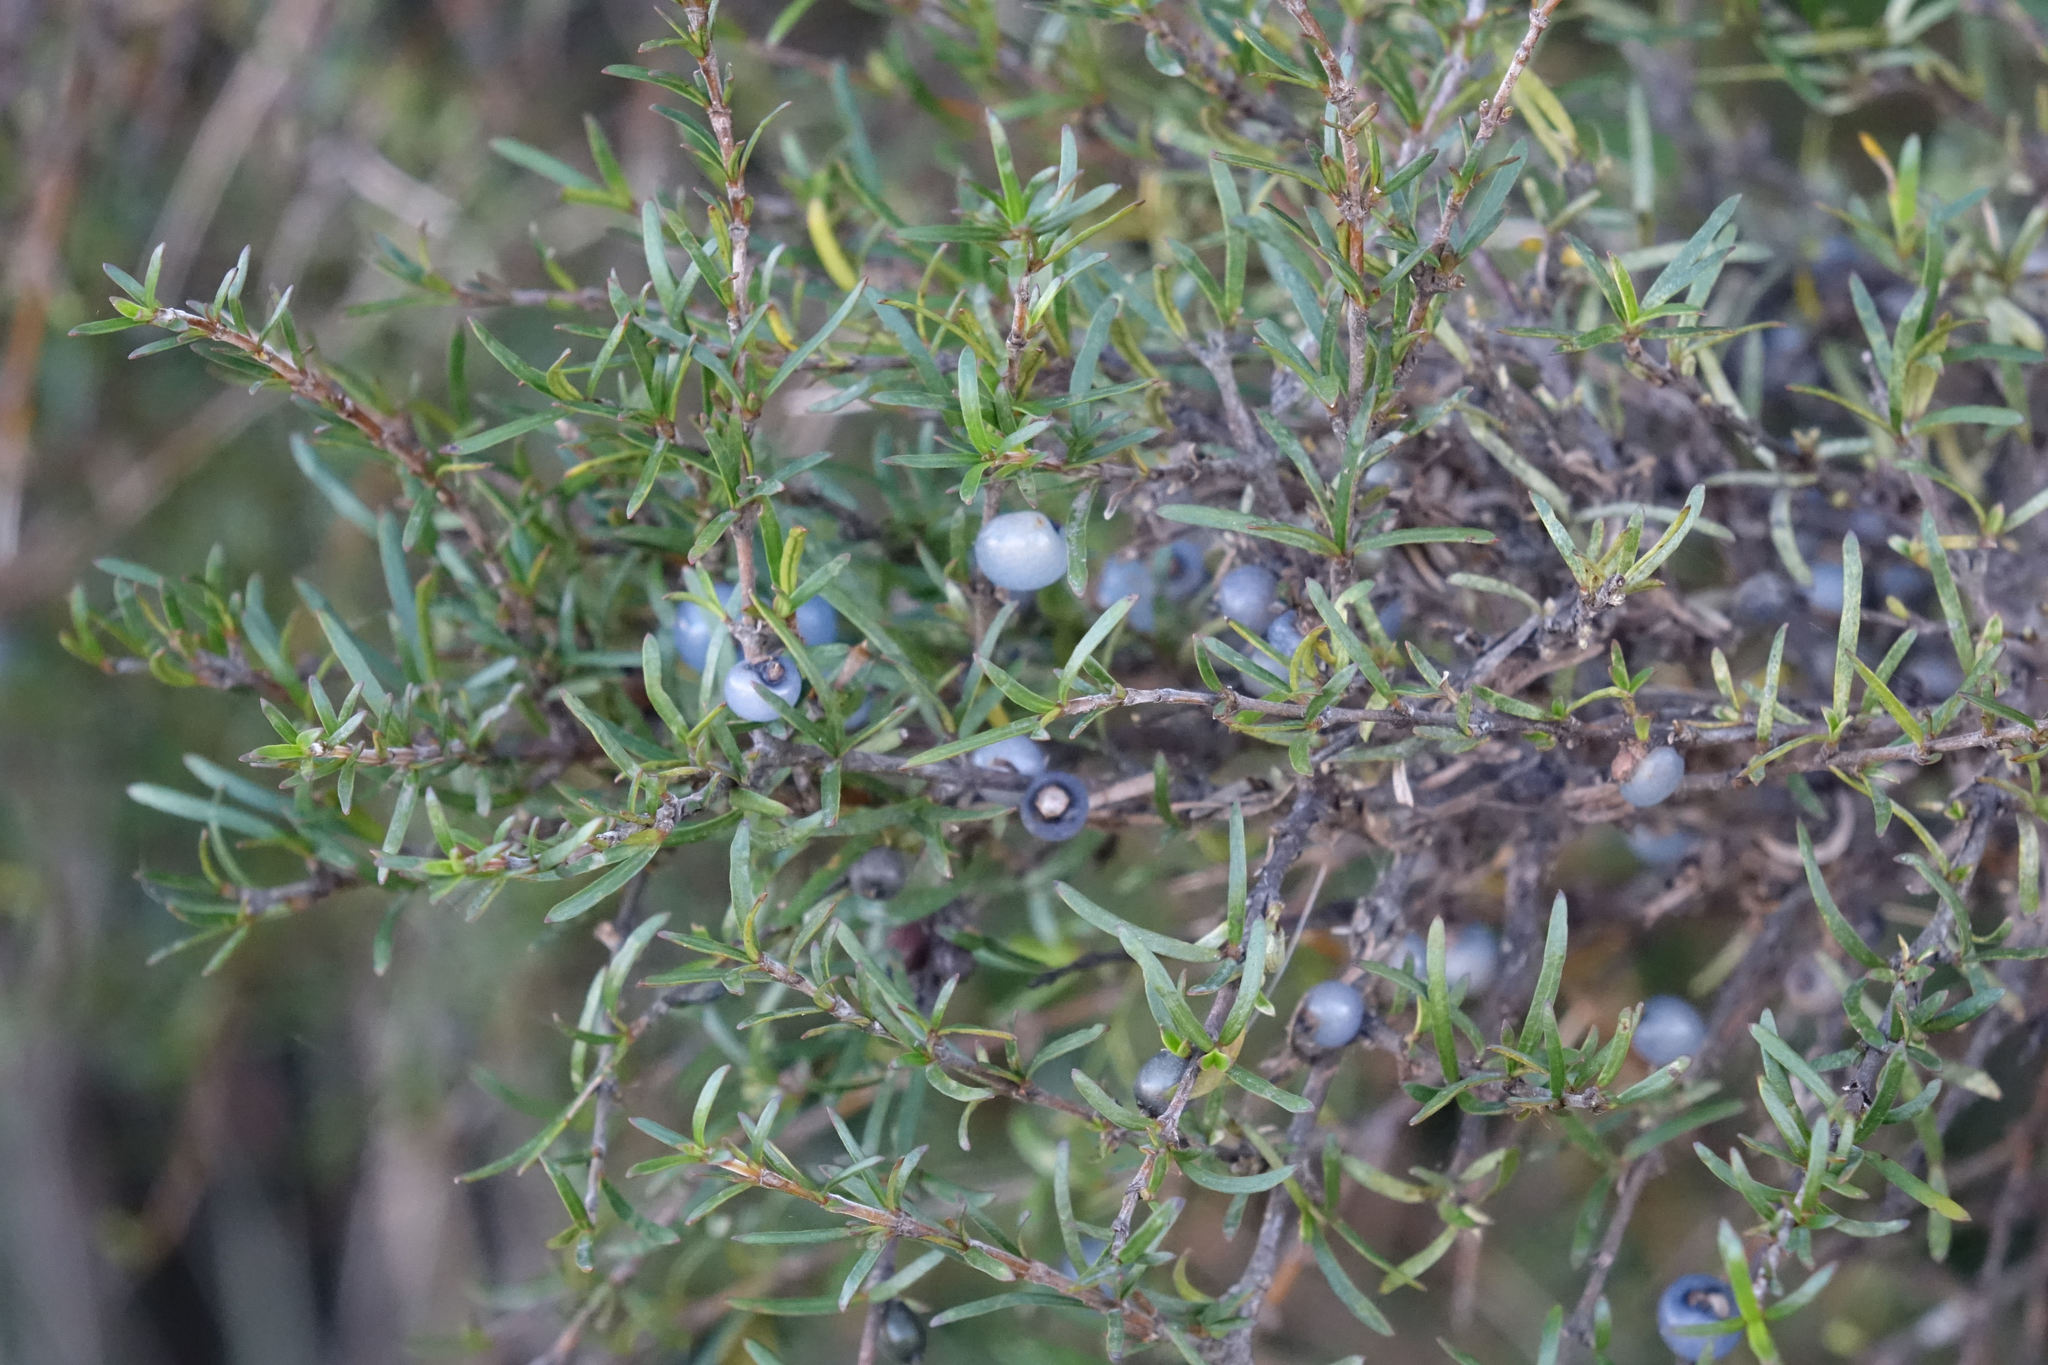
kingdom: Plantae
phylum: Tracheophyta
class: Magnoliopsida
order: Gentianales
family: Rubiaceae
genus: Coprosma
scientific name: Coprosma rugosa
